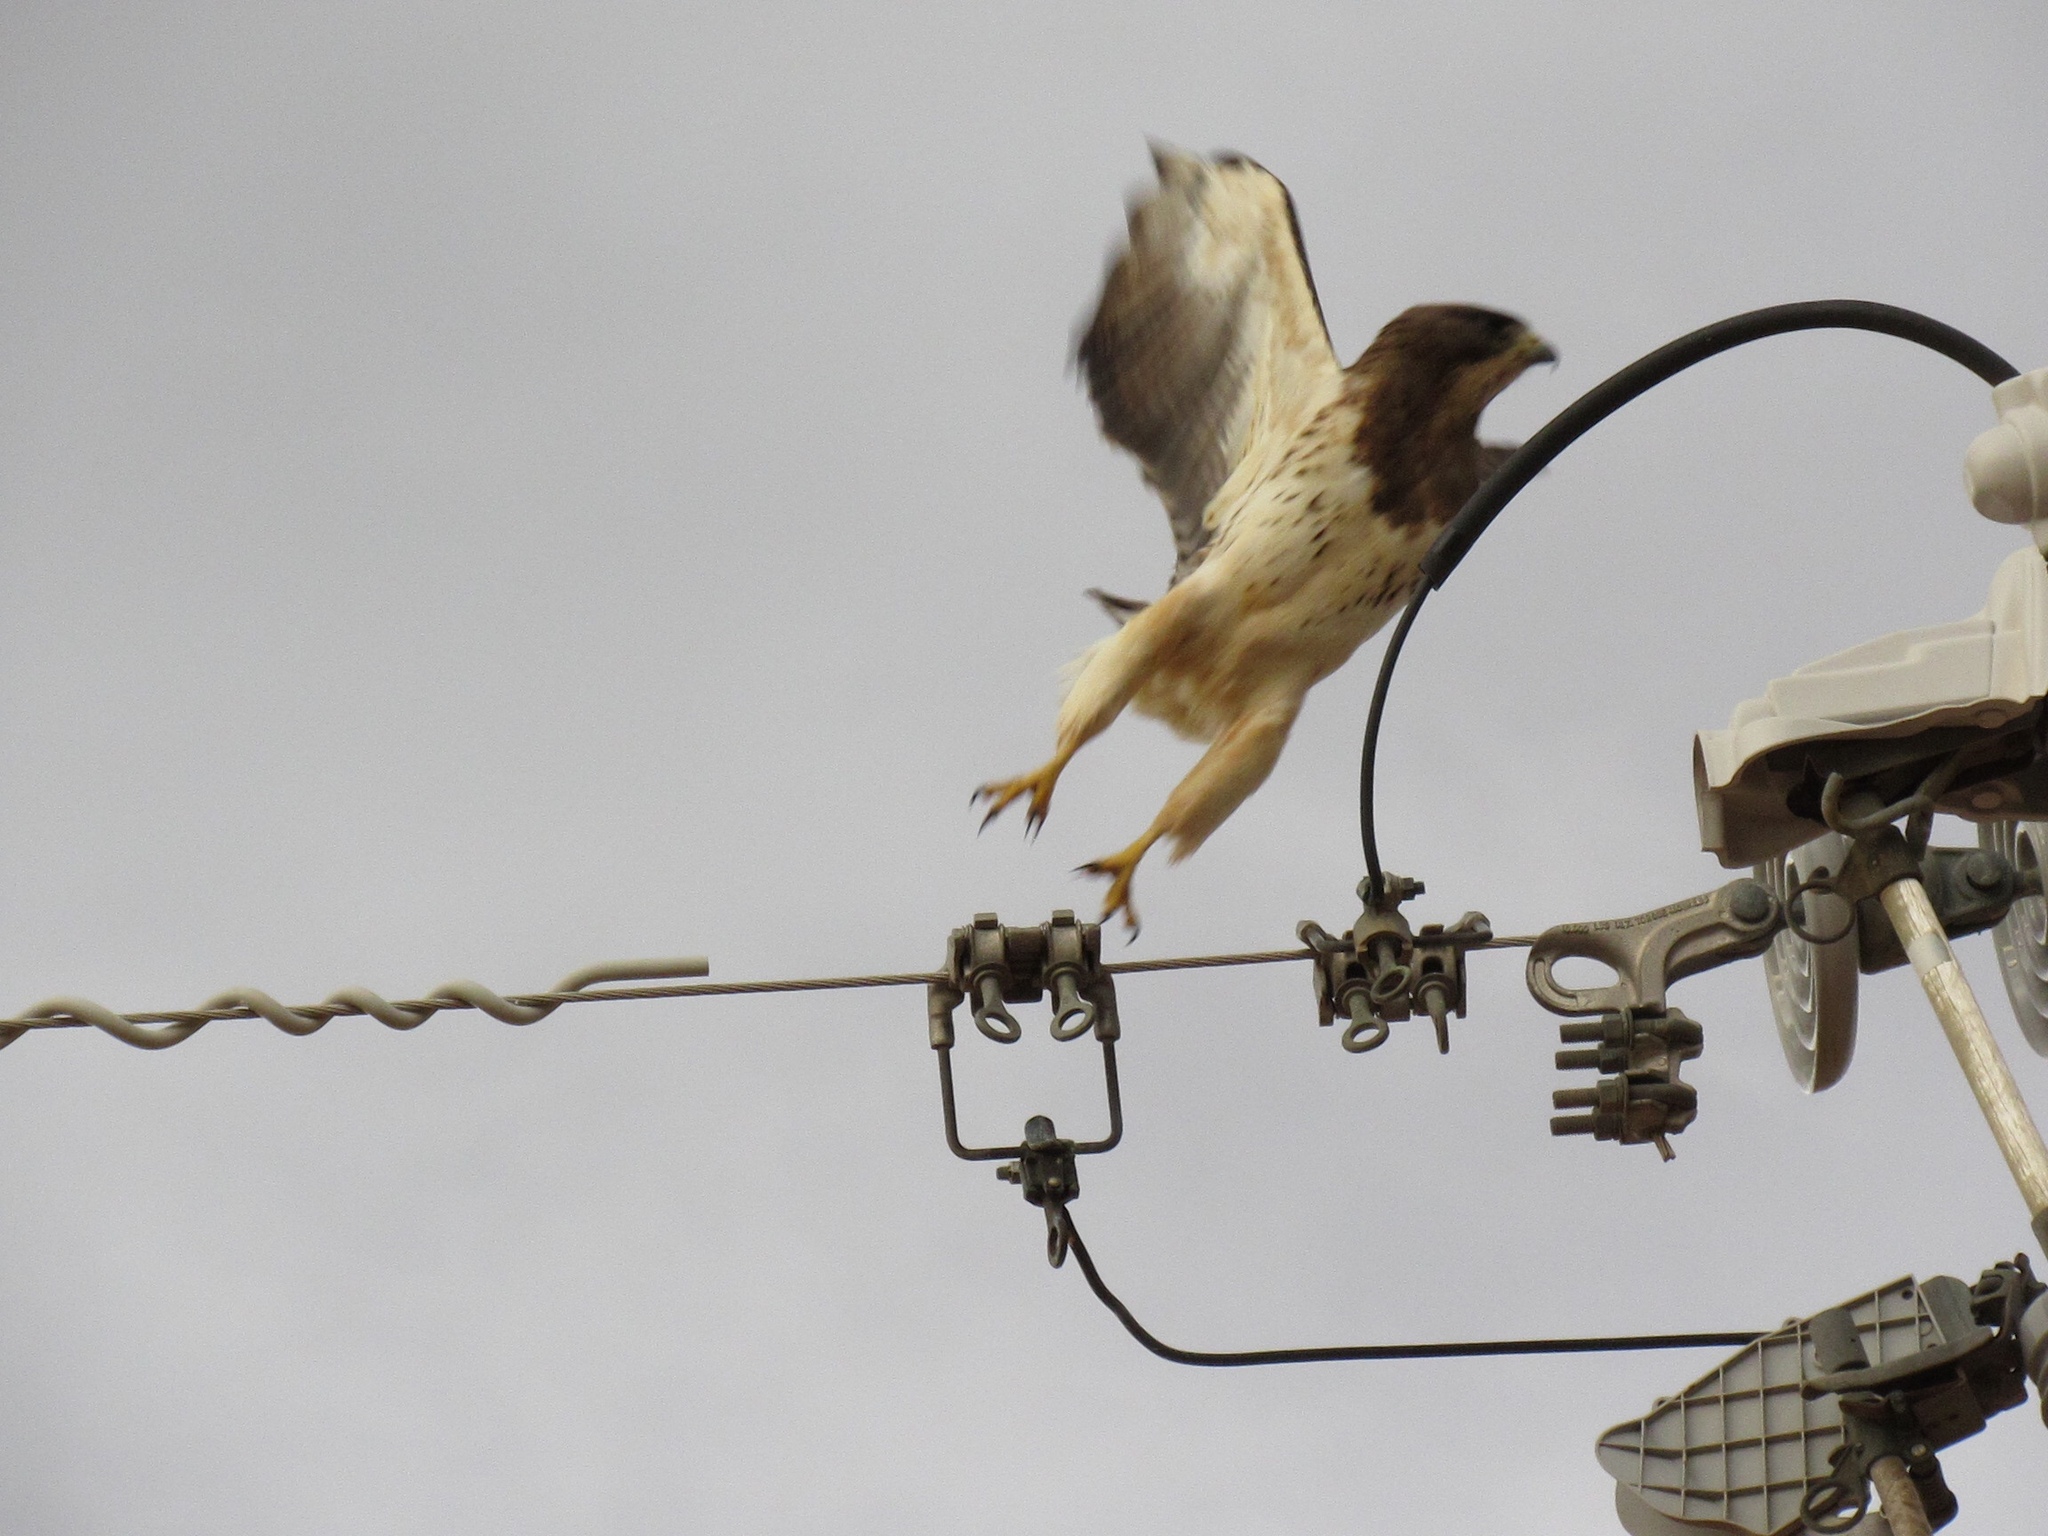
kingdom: Animalia
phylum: Chordata
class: Aves
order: Accipitriformes
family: Accipitridae
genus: Buteo
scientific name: Buteo swainsoni
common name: Swainson's hawk
